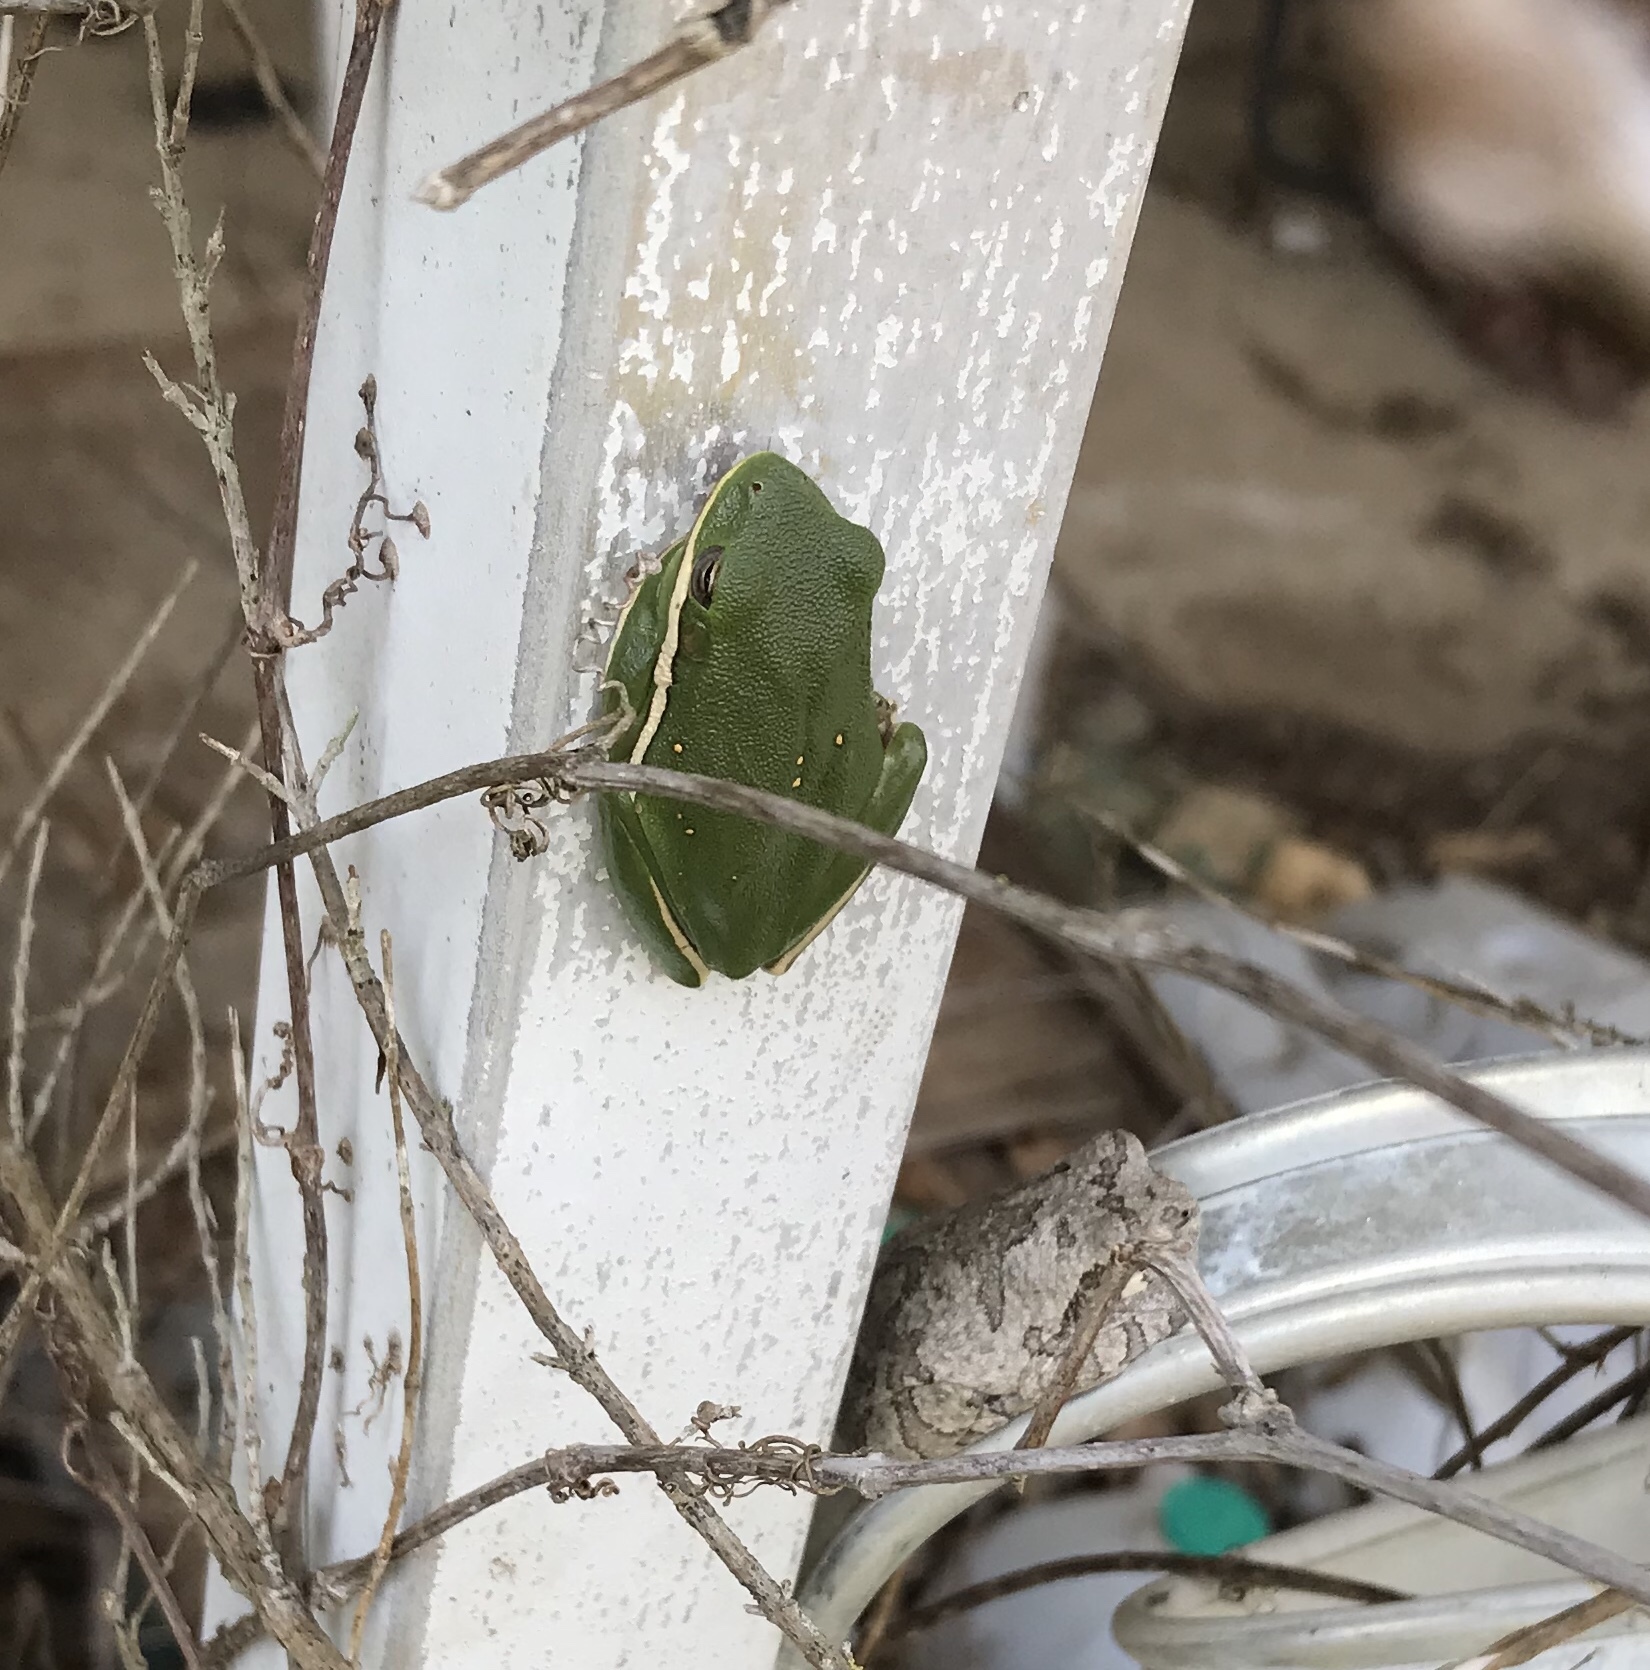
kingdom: Animalia
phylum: Chordata
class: Amphibia
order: Anura
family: Hylidae
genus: Dryophytes
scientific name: Dryophytes cinereus
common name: Green treefrog
